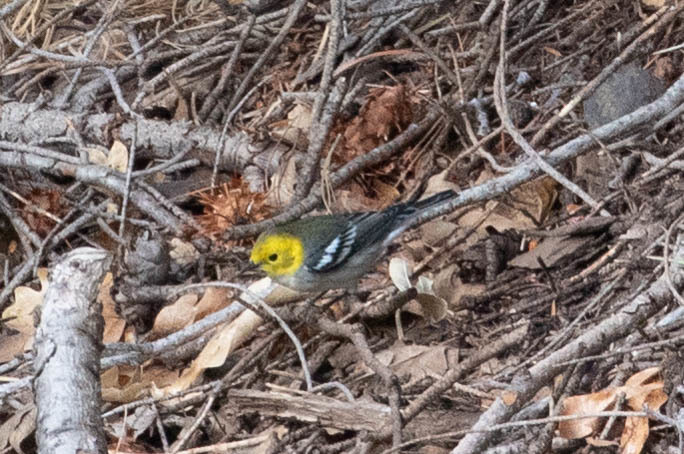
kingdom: Animalia
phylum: Chordata
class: Aves
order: Passeriformes
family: Parulidae
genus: Setophaga
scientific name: Setophaga occidentalis
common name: Hermit warbler
